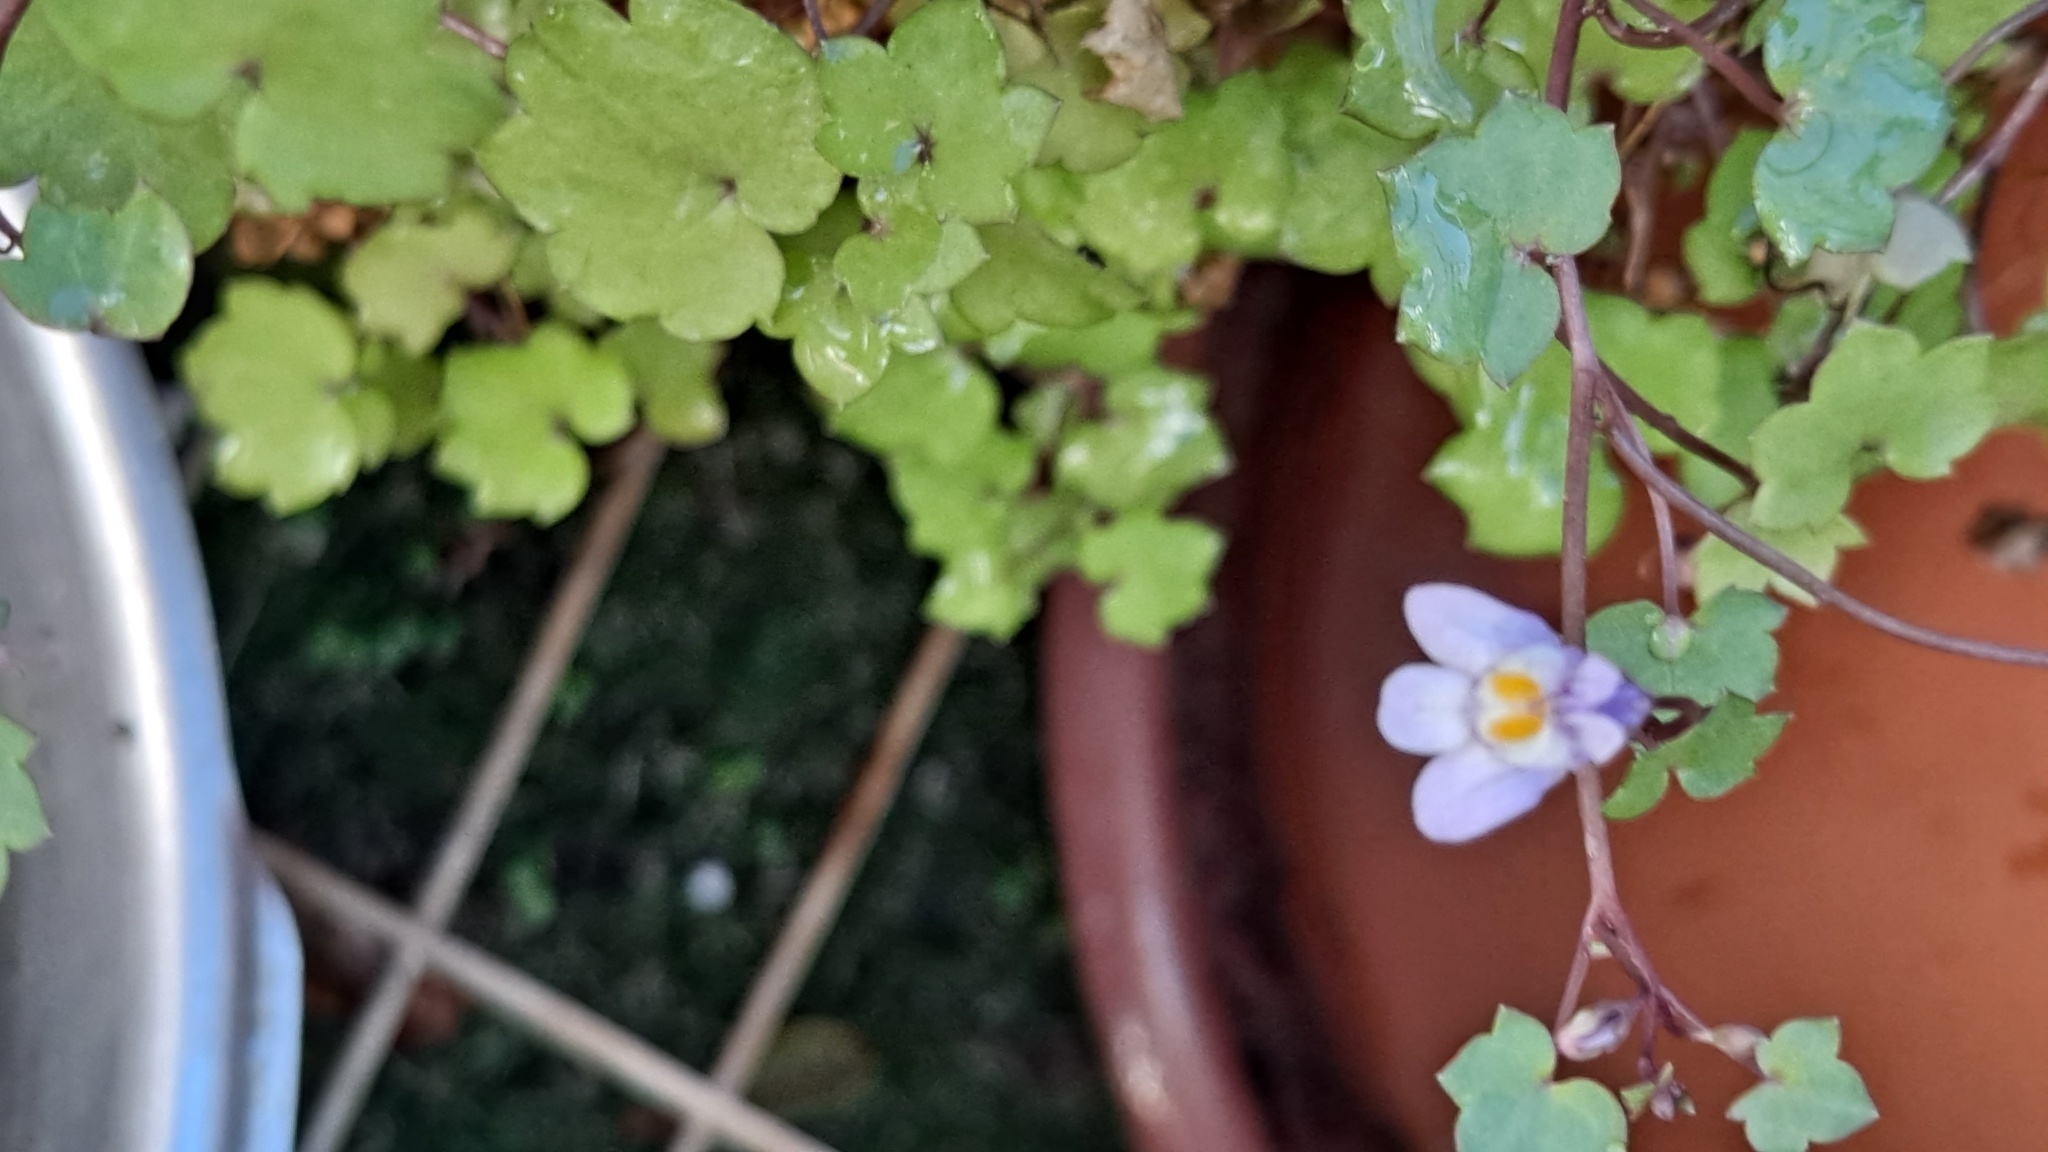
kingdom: Plantae
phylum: Tracheophyta
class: Magnoliopsida
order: Lamiales
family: Plantaginaceae
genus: Cymbalaria
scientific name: Cymbalaria muralis
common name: Ivy-leaved toadflax
